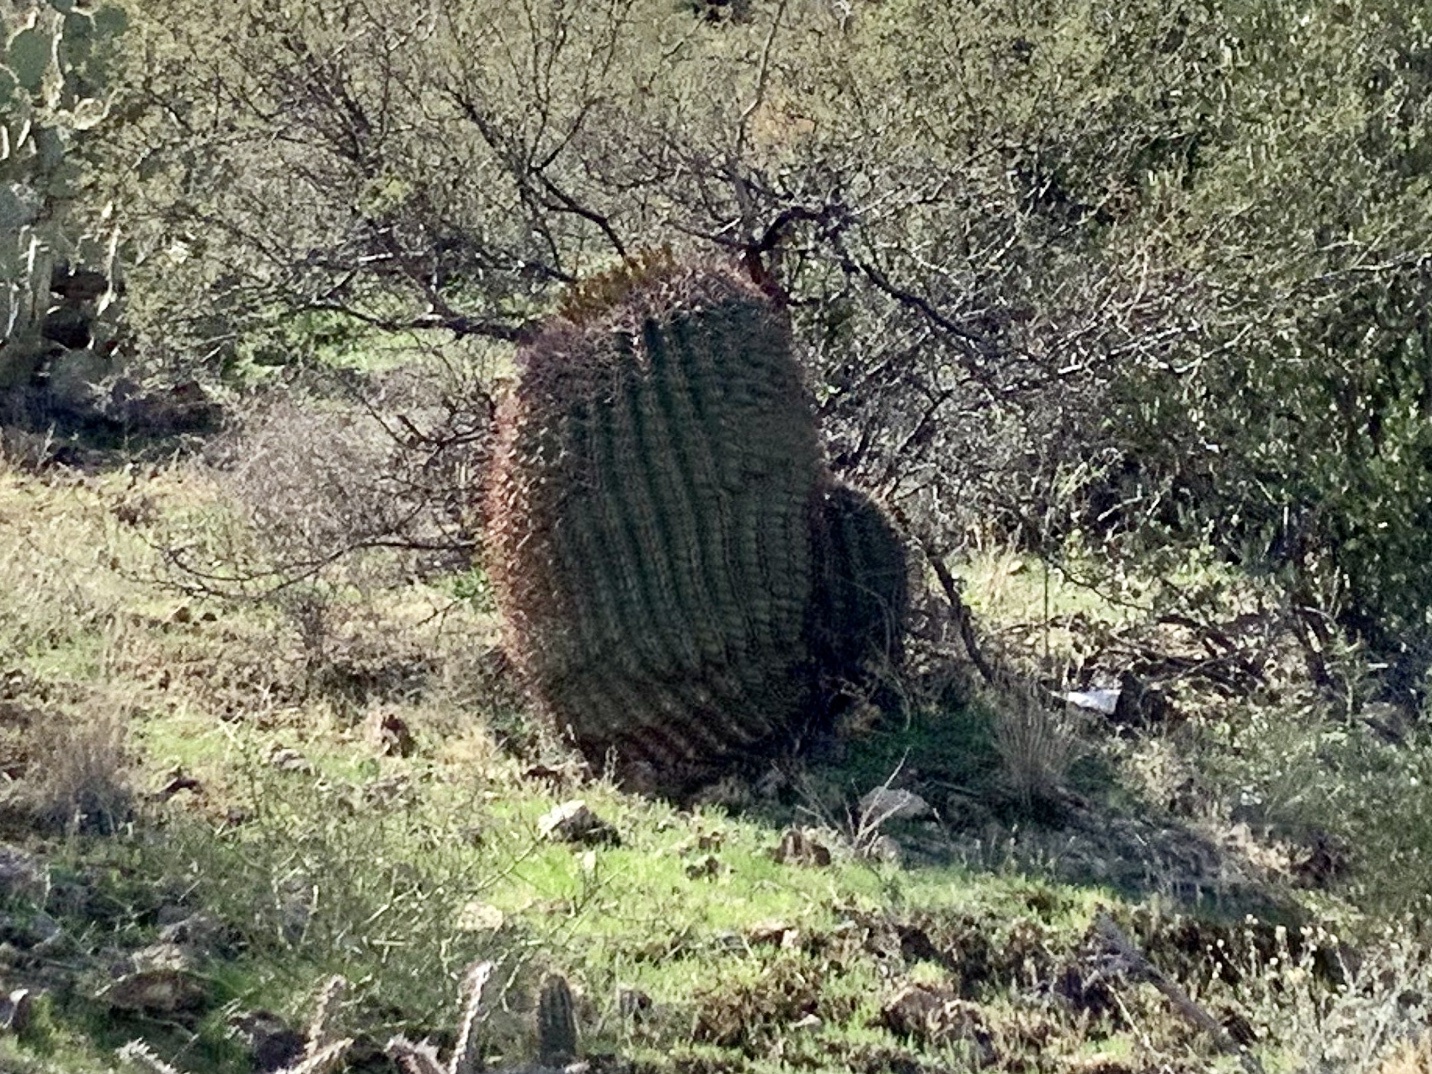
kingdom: Plantae
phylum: Tracheophyta
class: Magnoliopsida
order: Caryophyllales
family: Cactaceae
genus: Ferocactus
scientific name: Ferocactus wislizeni
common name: Candy barrel cactus
